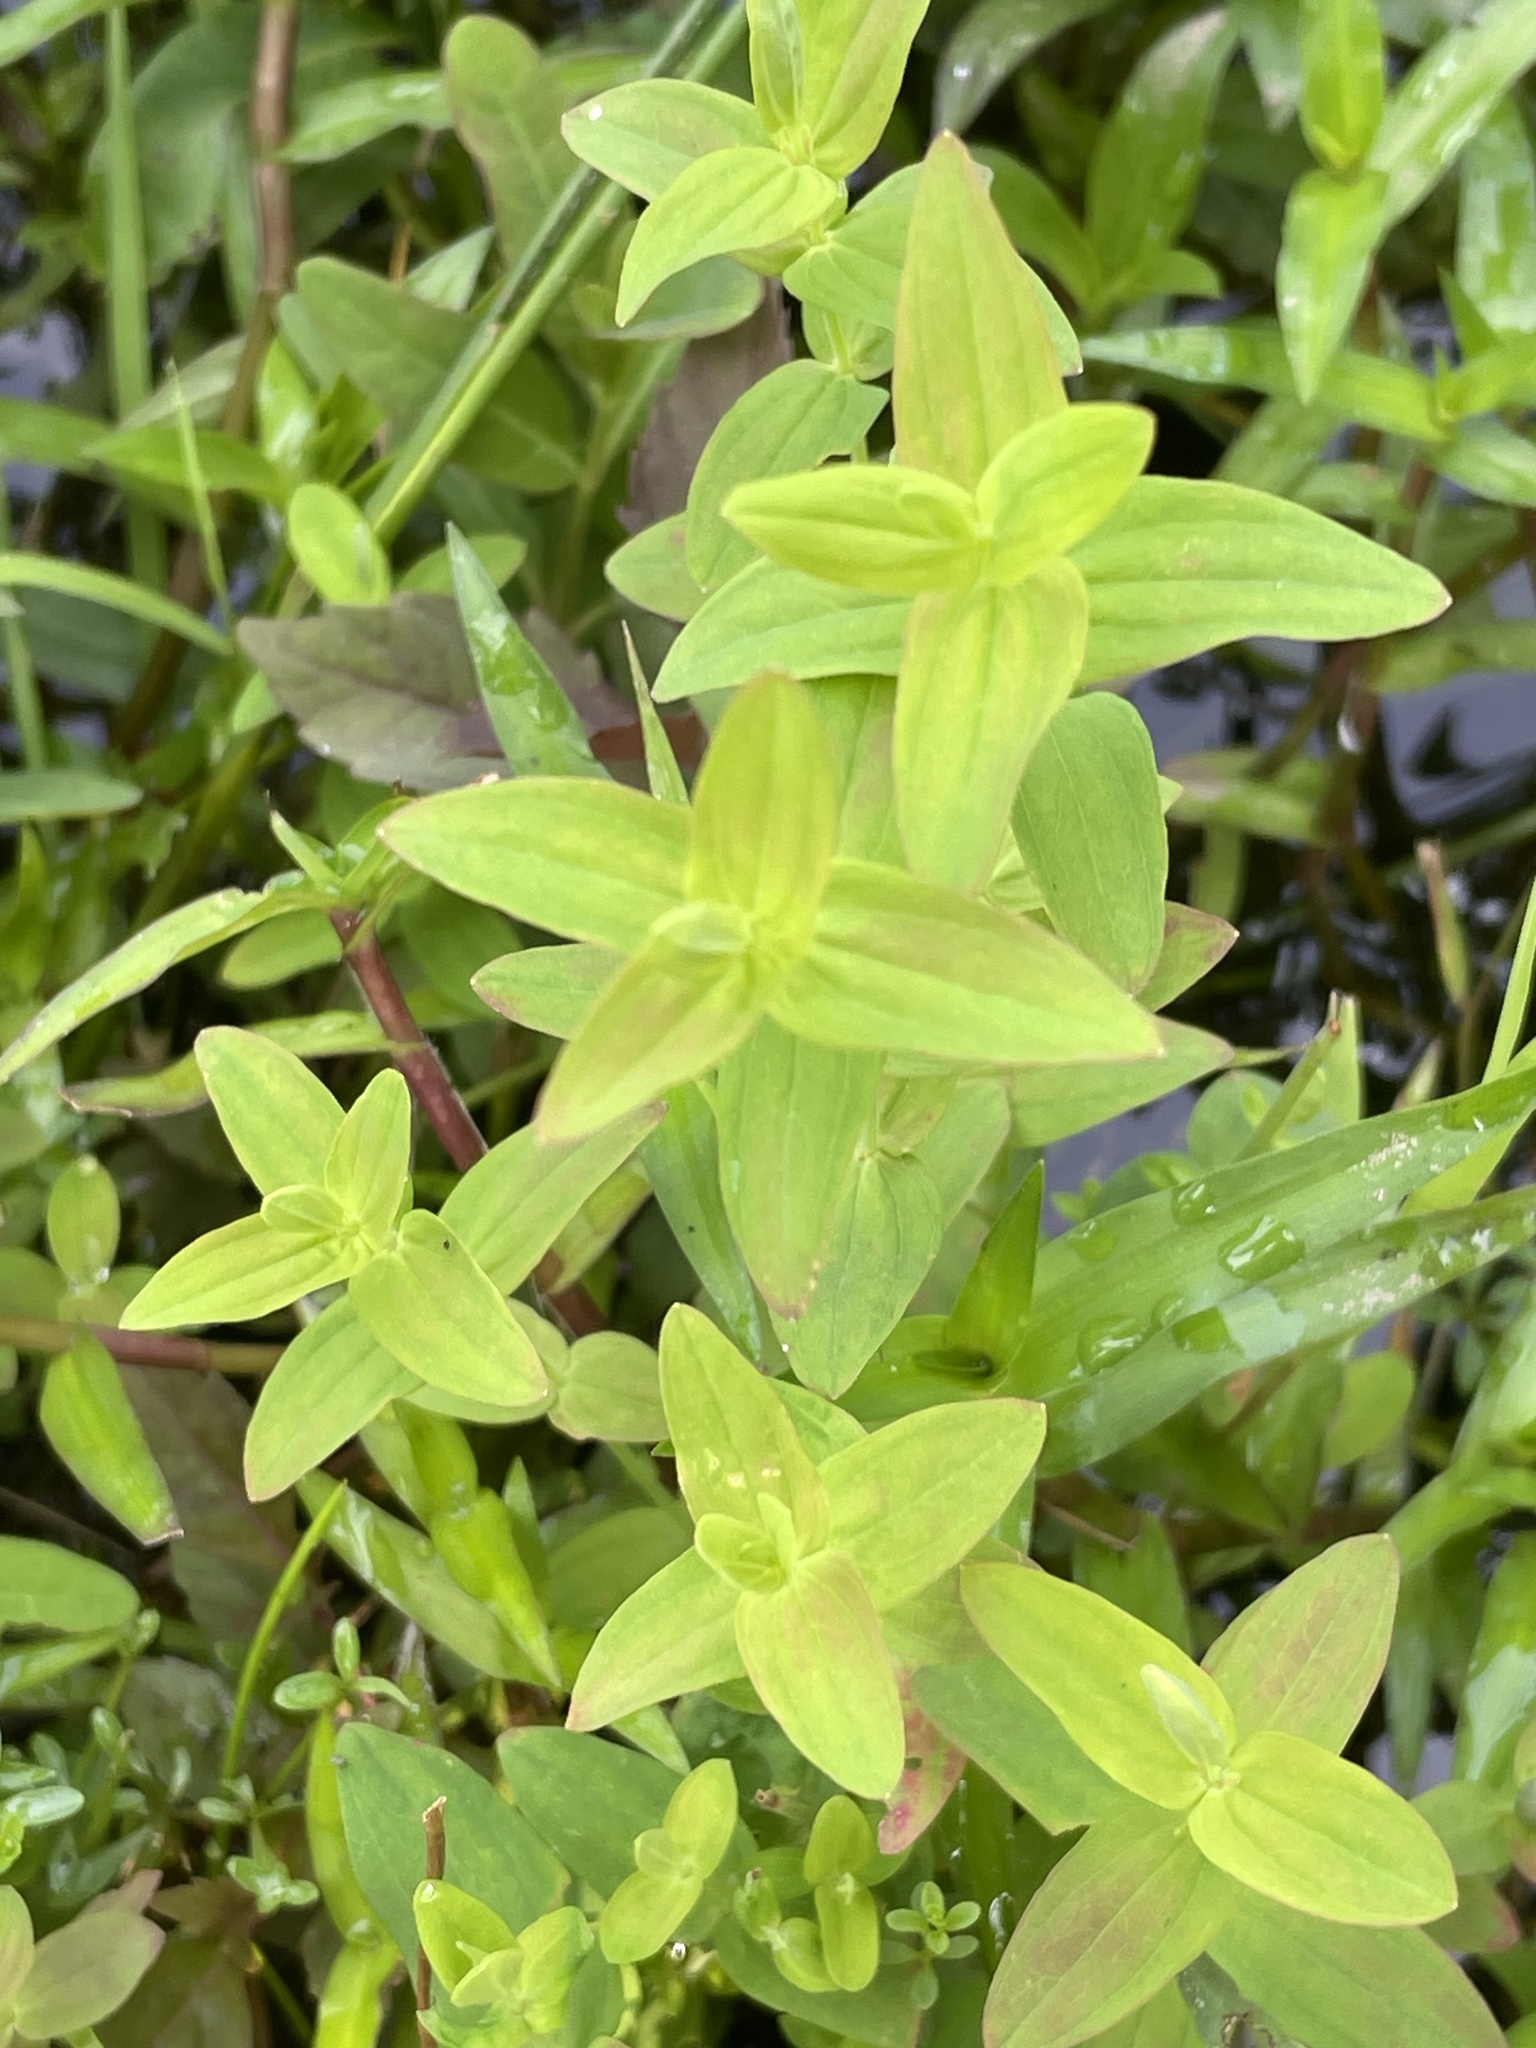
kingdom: Plantae
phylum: Tracheophyta
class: Magnoliopsida
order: Malpighiales
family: Hypericaceae
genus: Hypericum
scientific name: Hypericum mutilum
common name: Dwarf st. john's-wort
